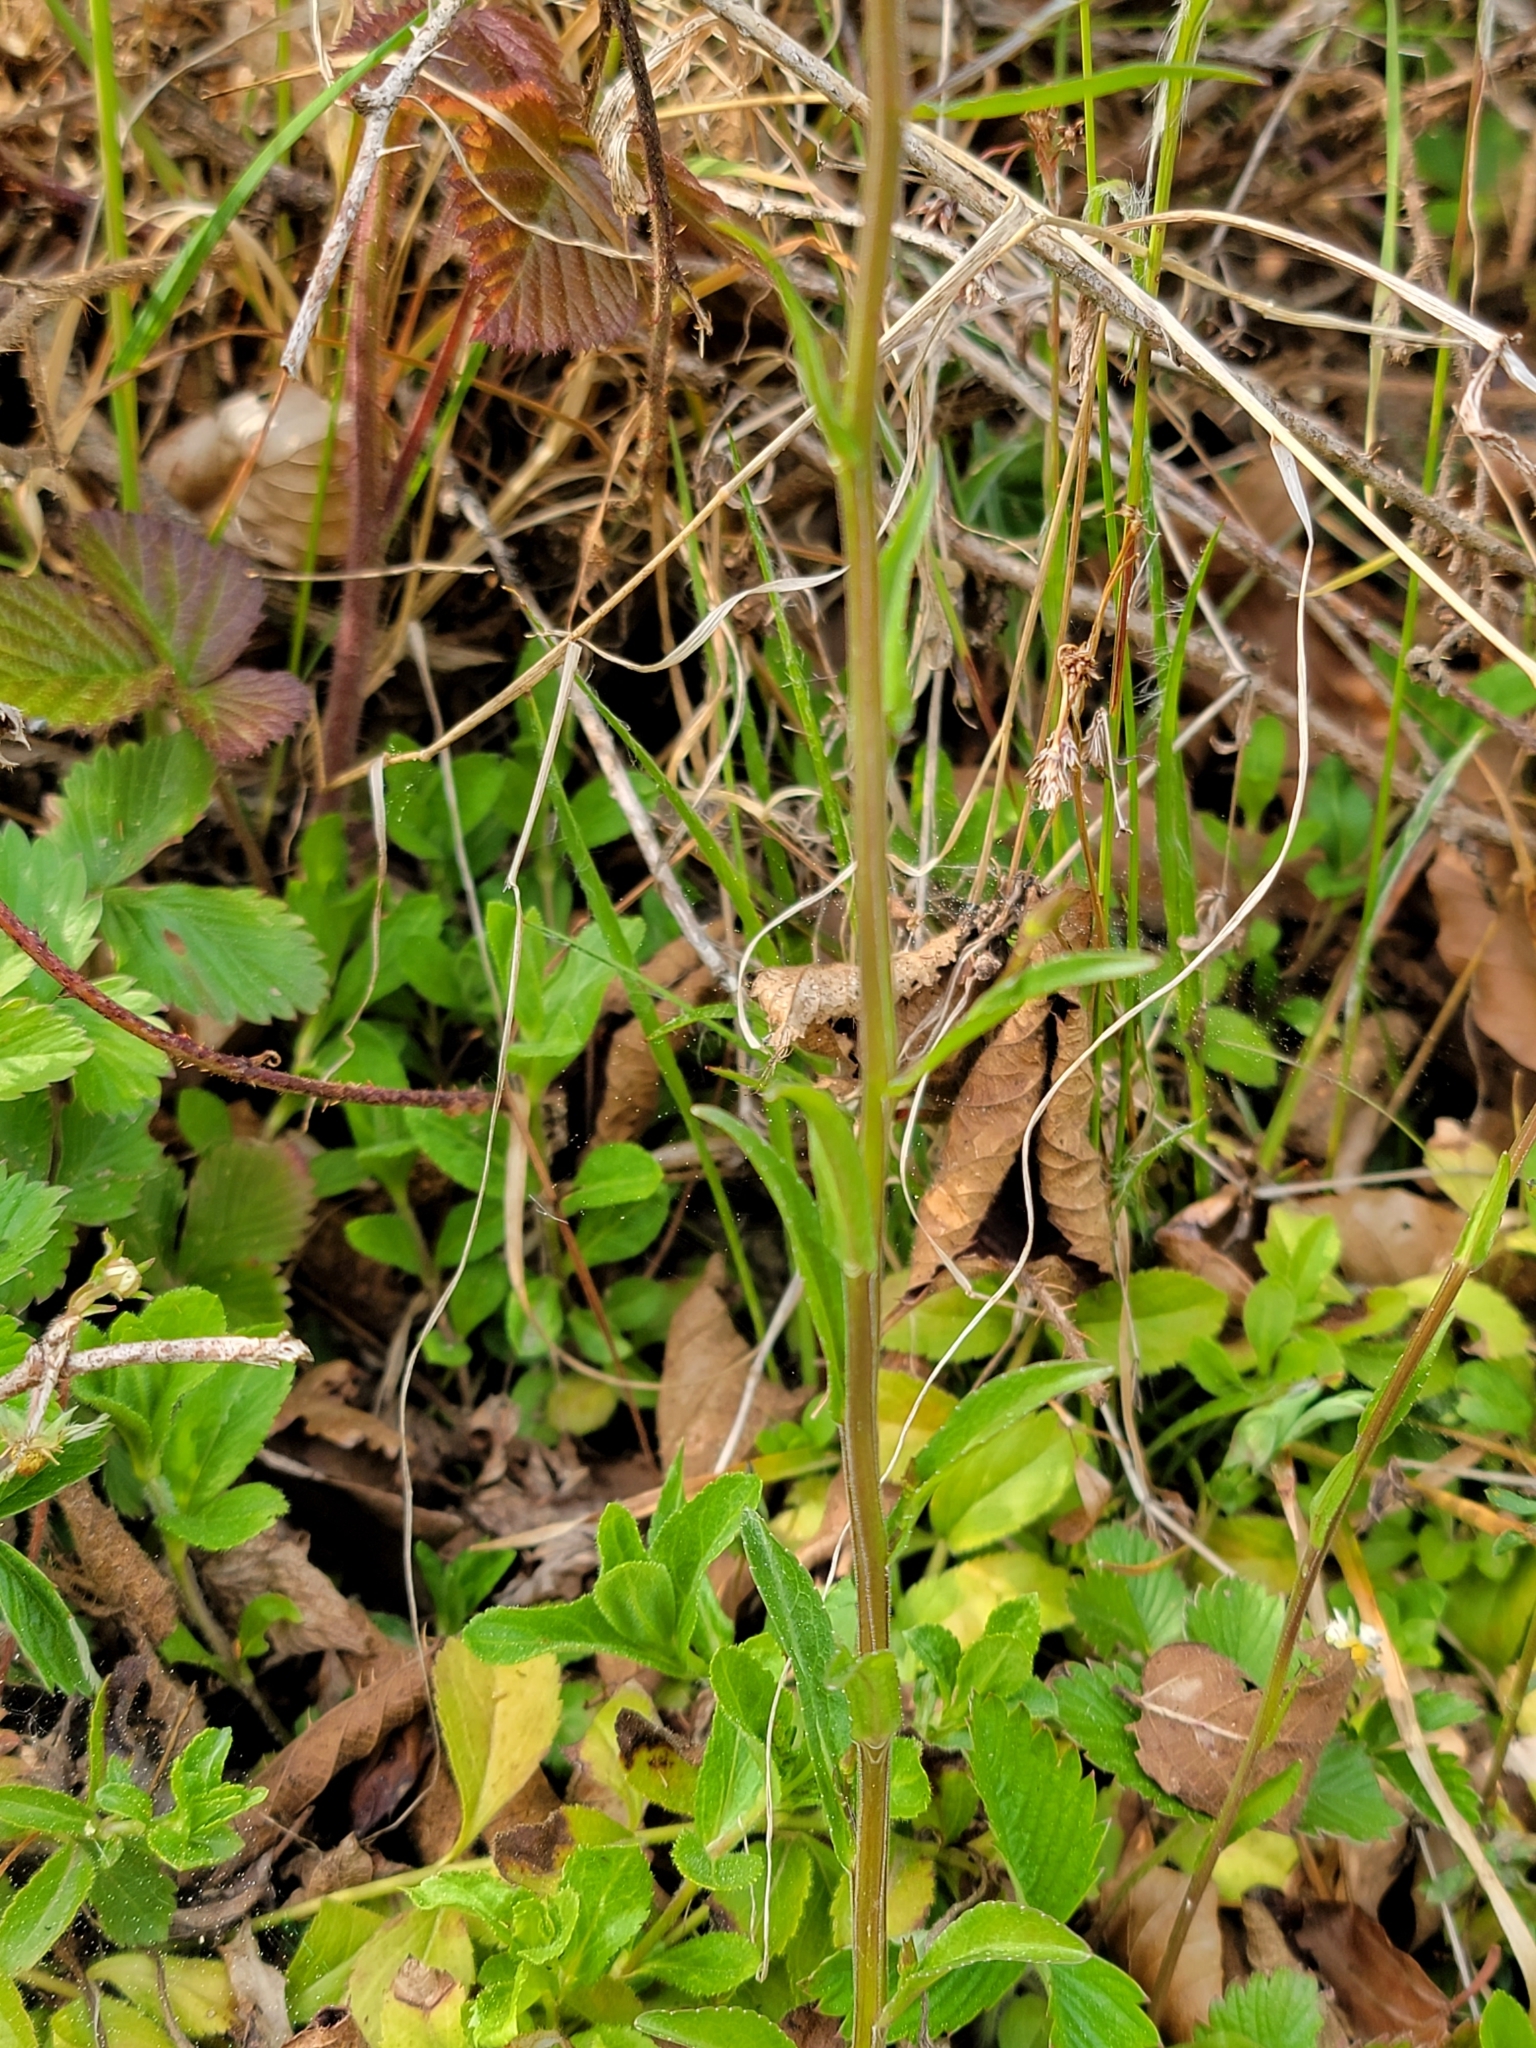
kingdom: Plantae
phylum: Tracheophyta
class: Magnoliopsida
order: Asterales
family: Campanulaceae
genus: Campanula
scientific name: Campanula patula
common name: Spreading bellflower
